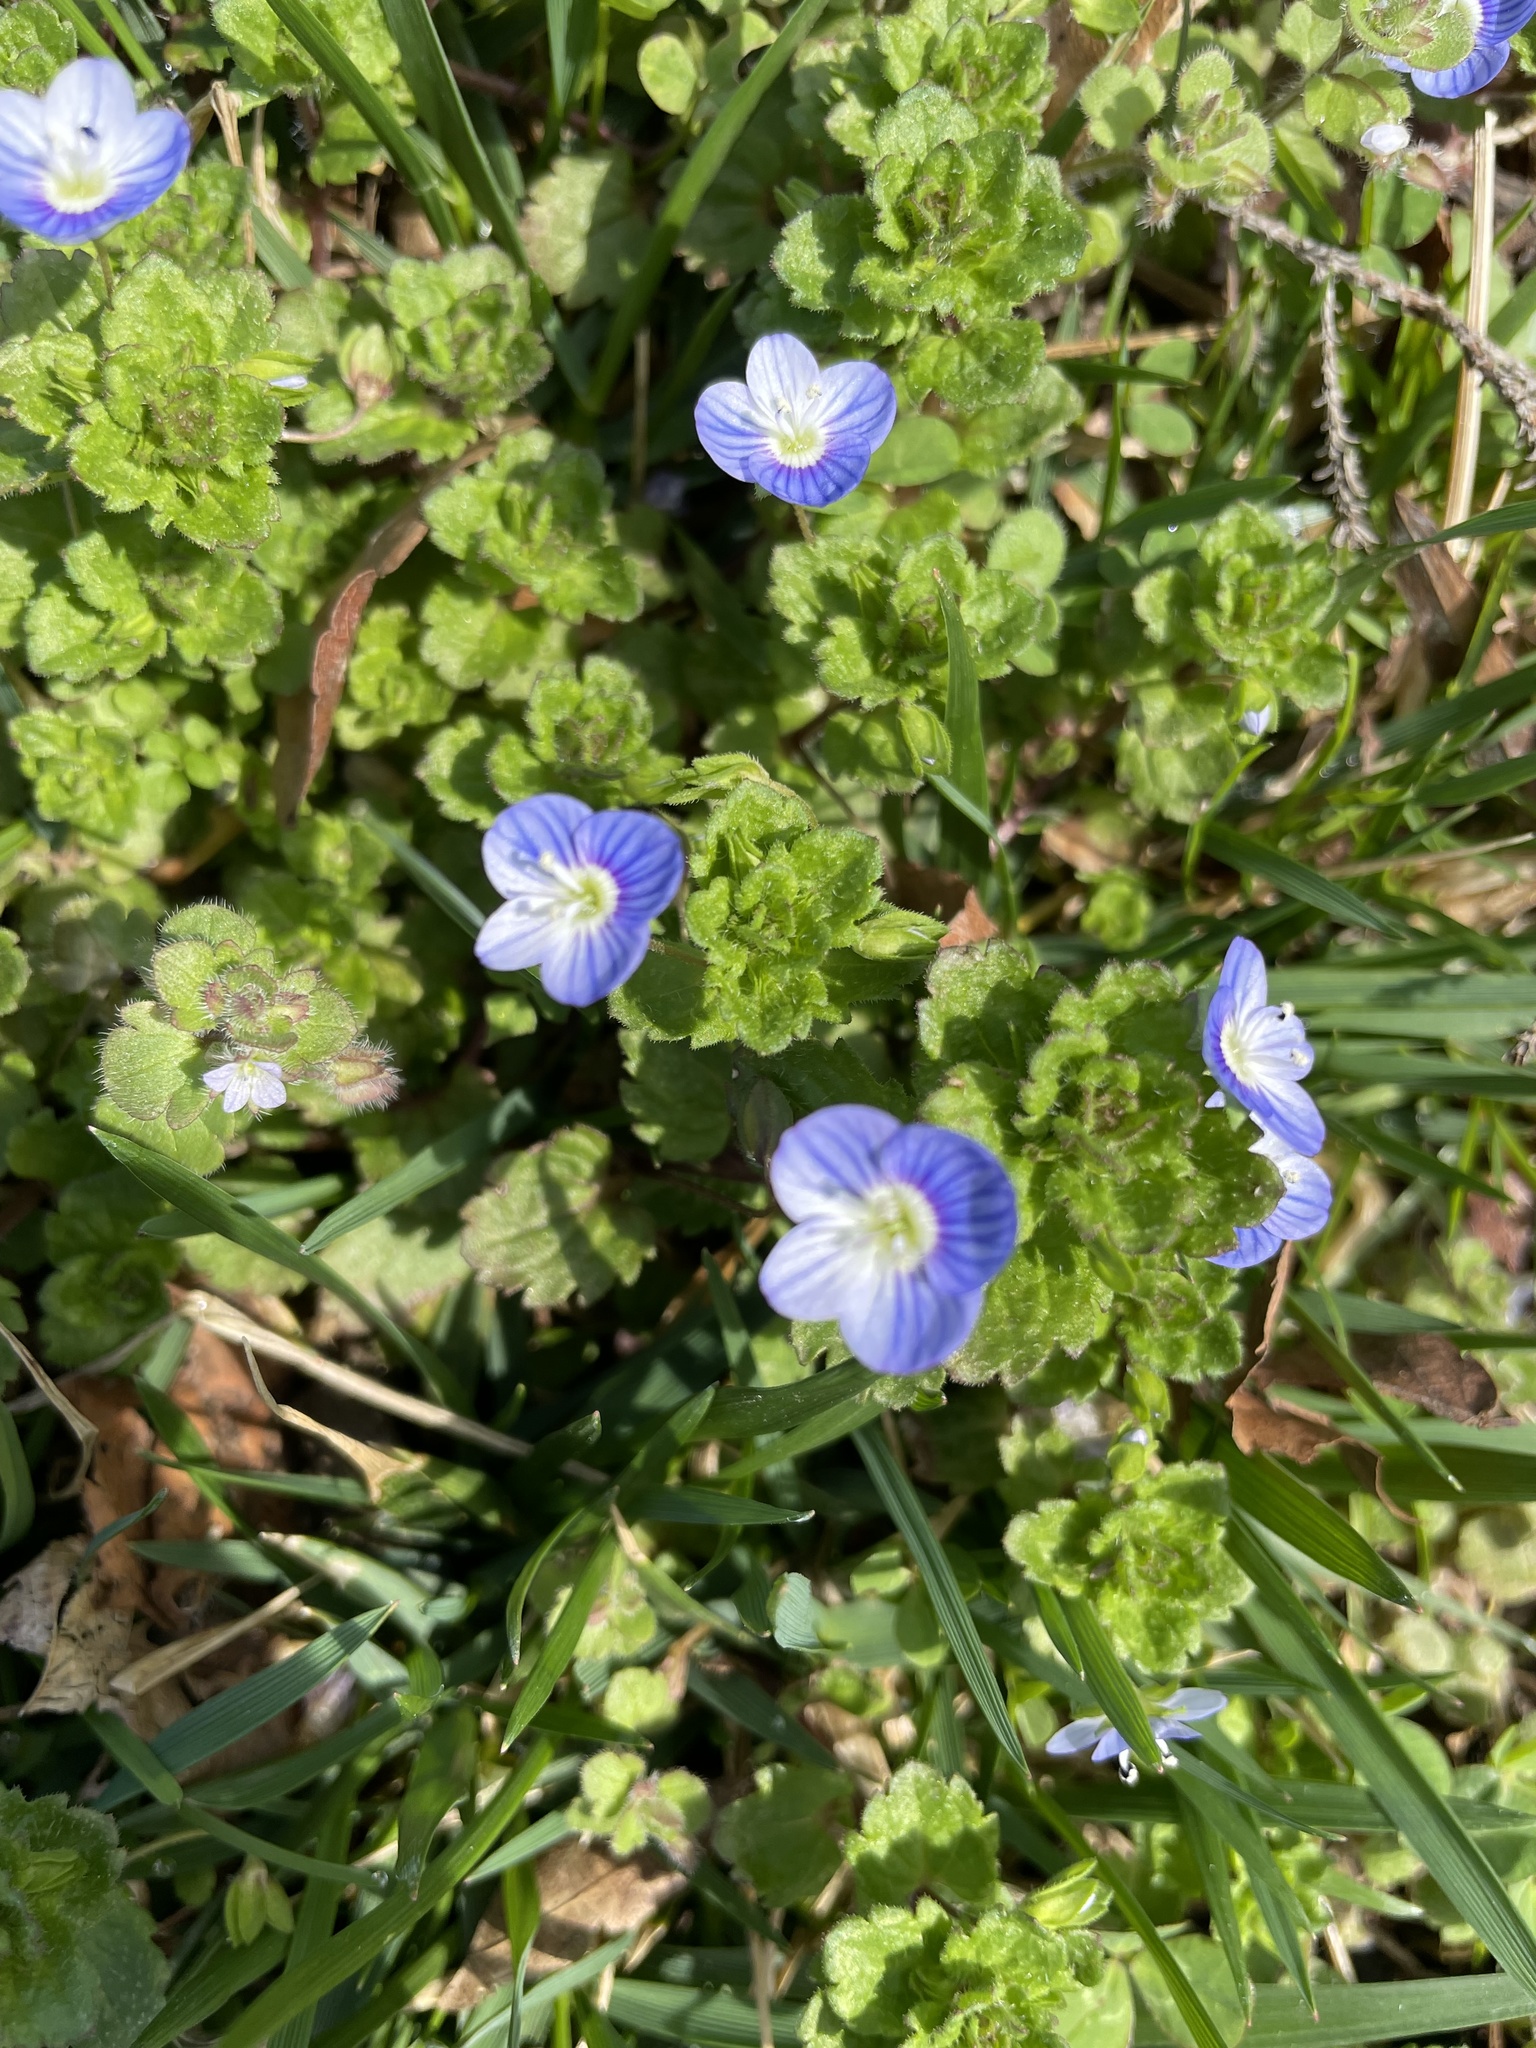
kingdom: Plantae
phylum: Tracheophyta
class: Magnoliopsida
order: Lamiales
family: Plantaginaceae
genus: Veronica
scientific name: Veronica persica
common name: Common field-speedwell
